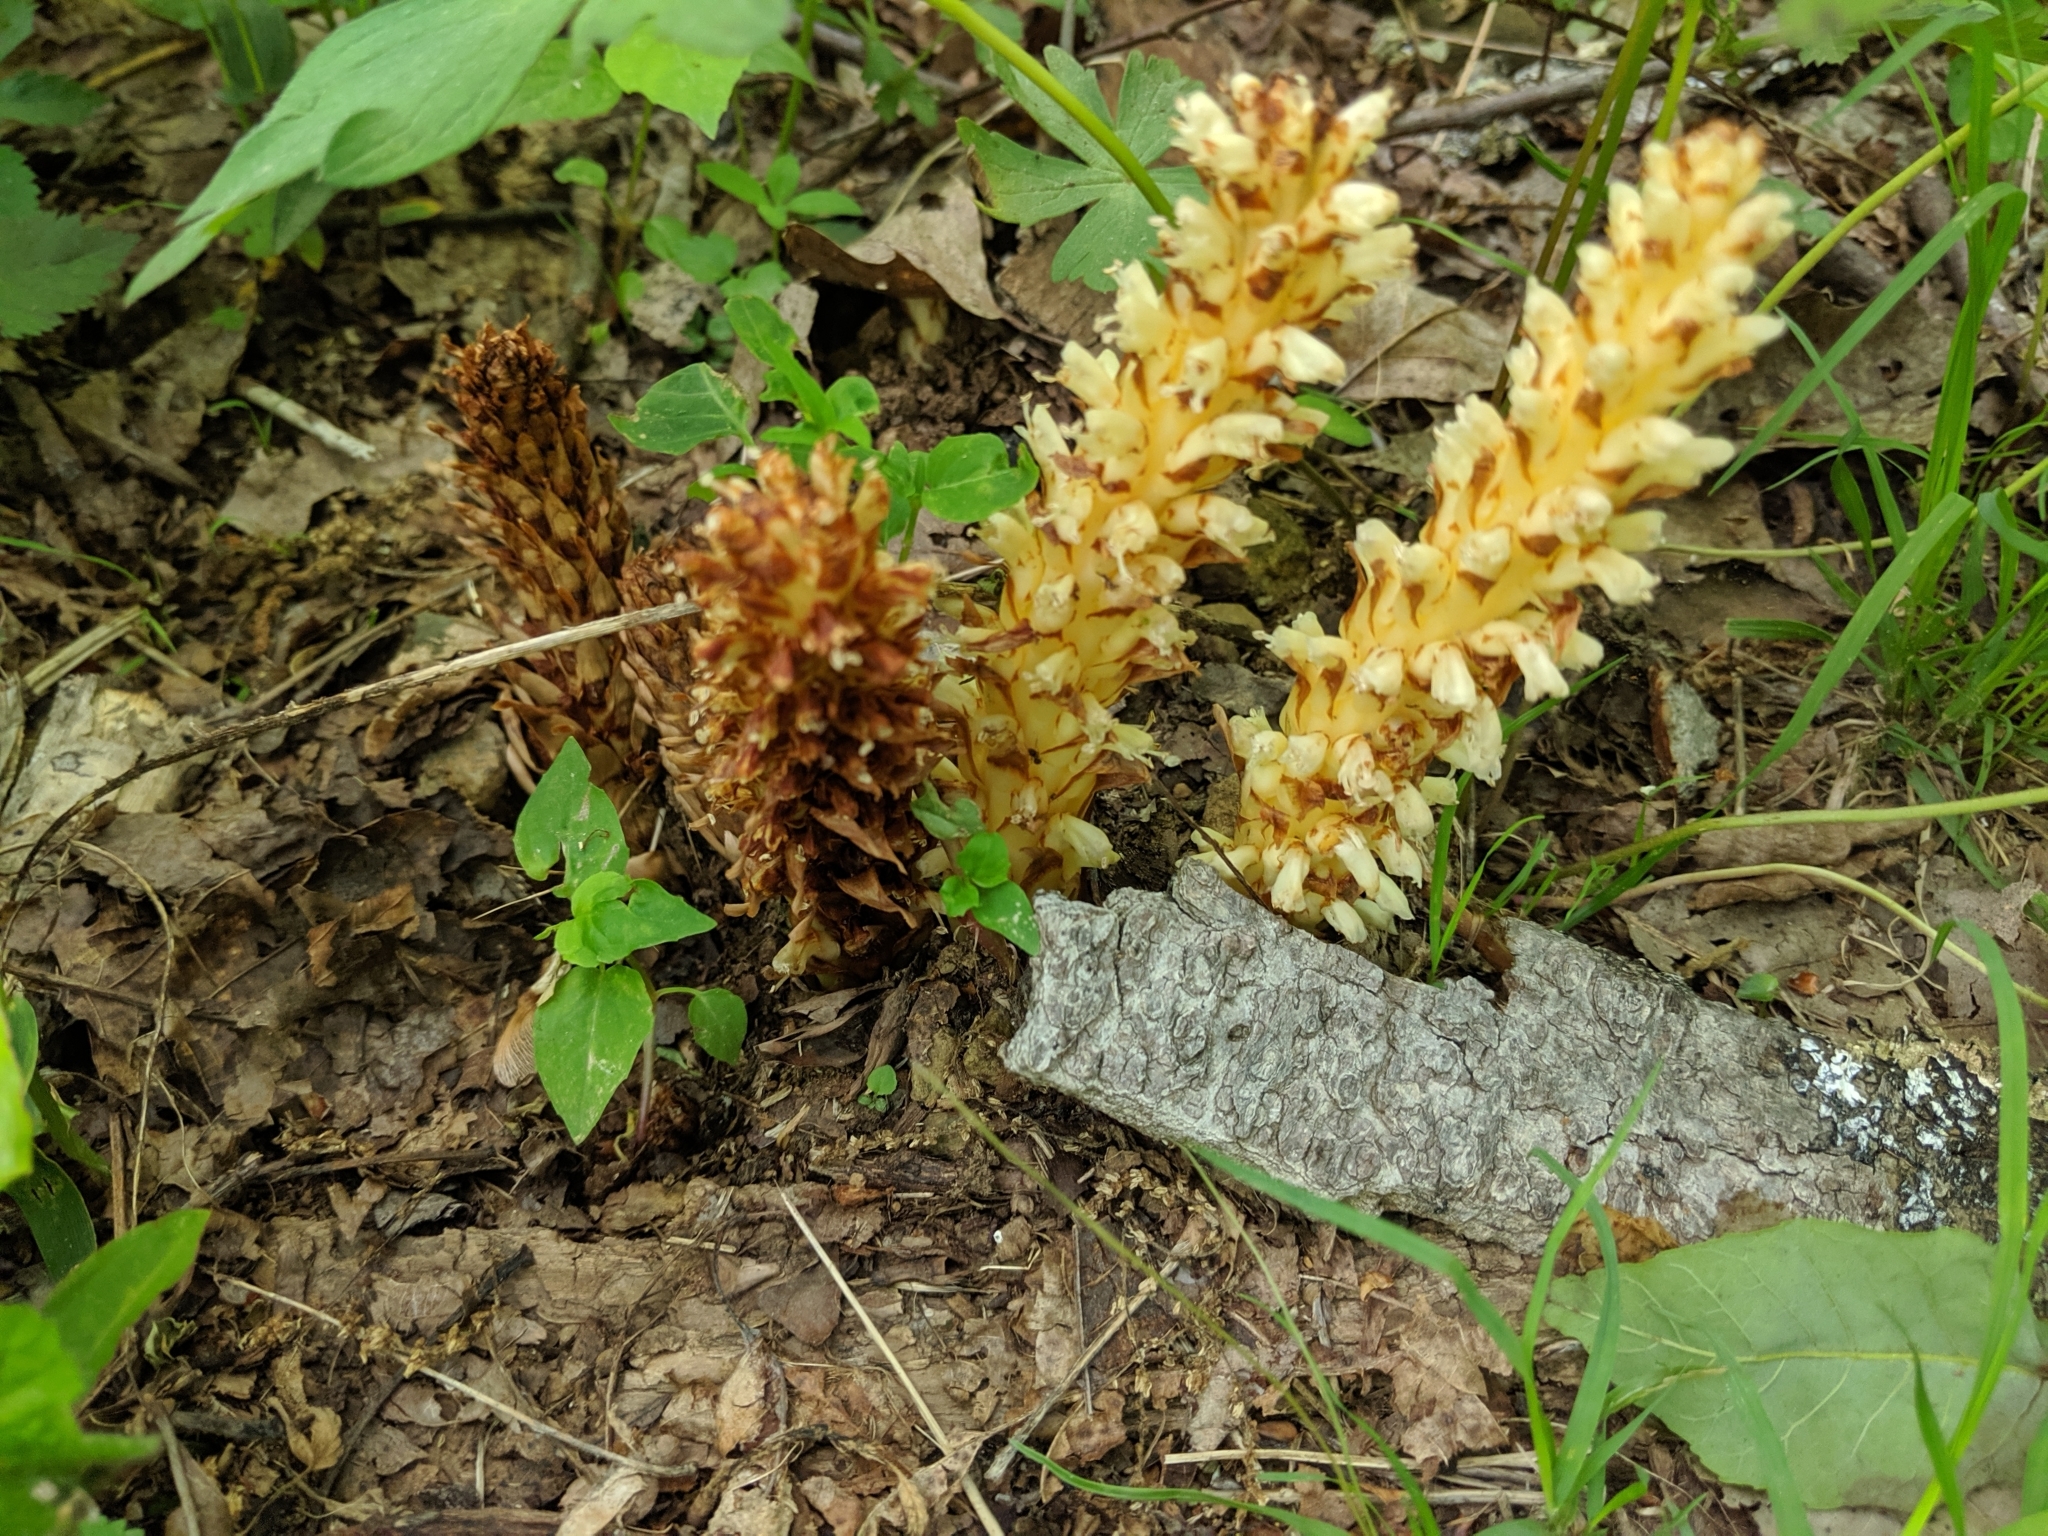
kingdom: Plantae
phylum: Tracheophyta
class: Magnoliopsida
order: Lamiales
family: Orobanchaceae
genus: Conopholis
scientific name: Conopholis americana
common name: American cancer-root
